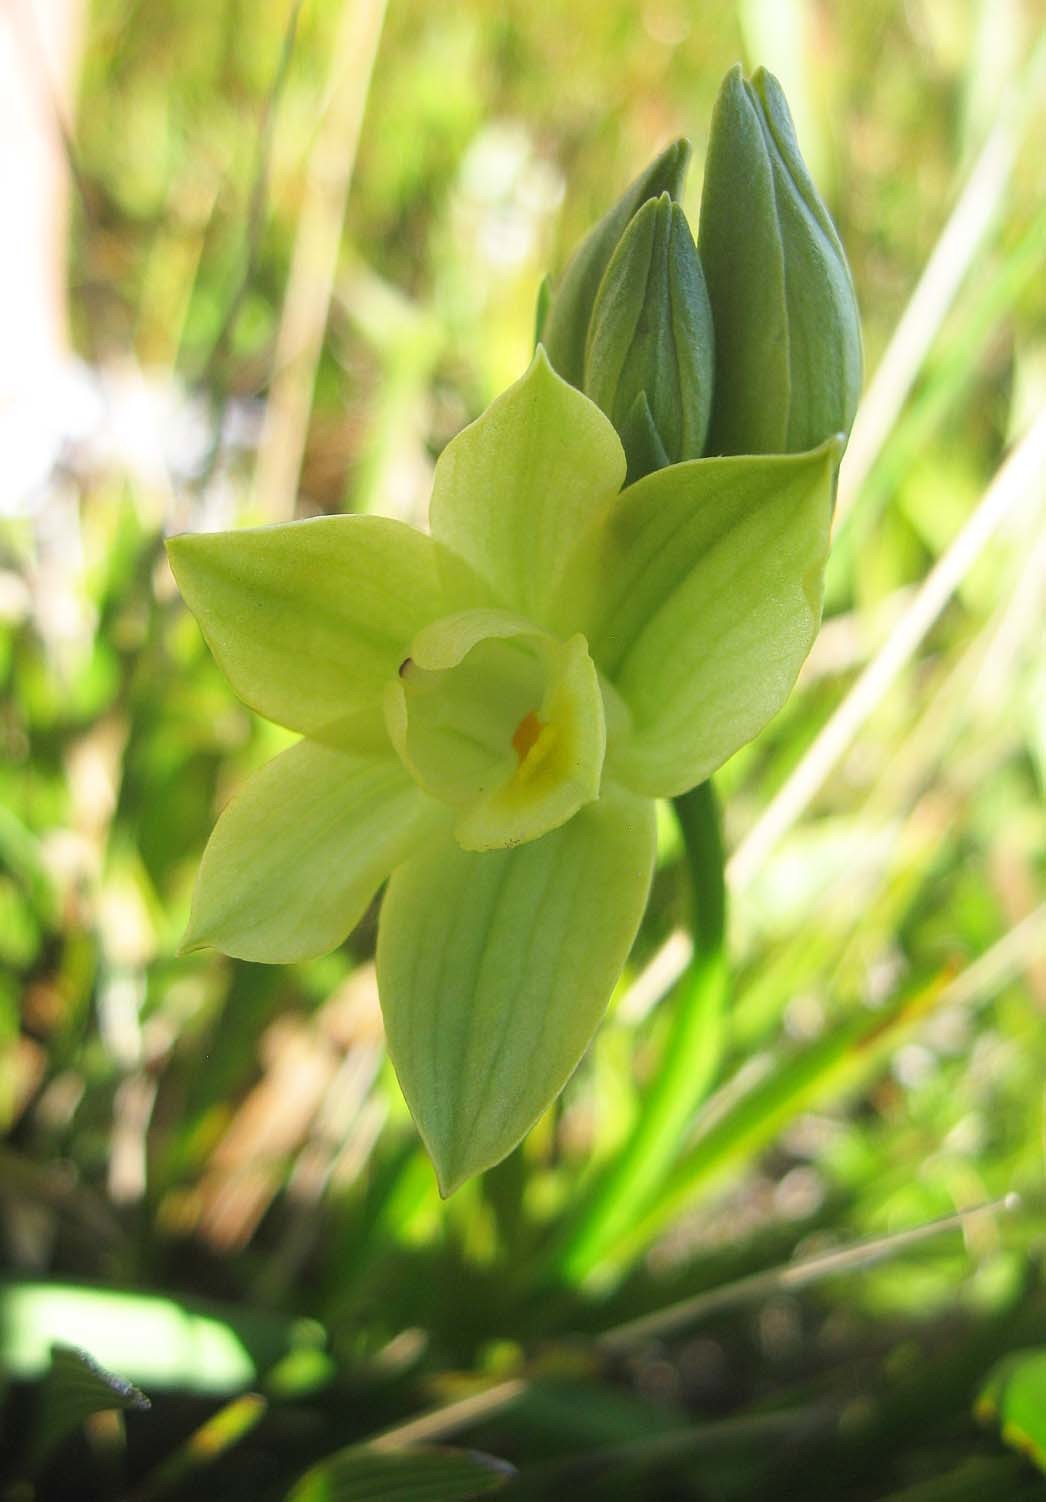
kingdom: Plantae
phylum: Tracheophyta
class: Liliopsida
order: Asparagales
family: Orchidaceae
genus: Eulophia
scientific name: Eulophia tabularis
